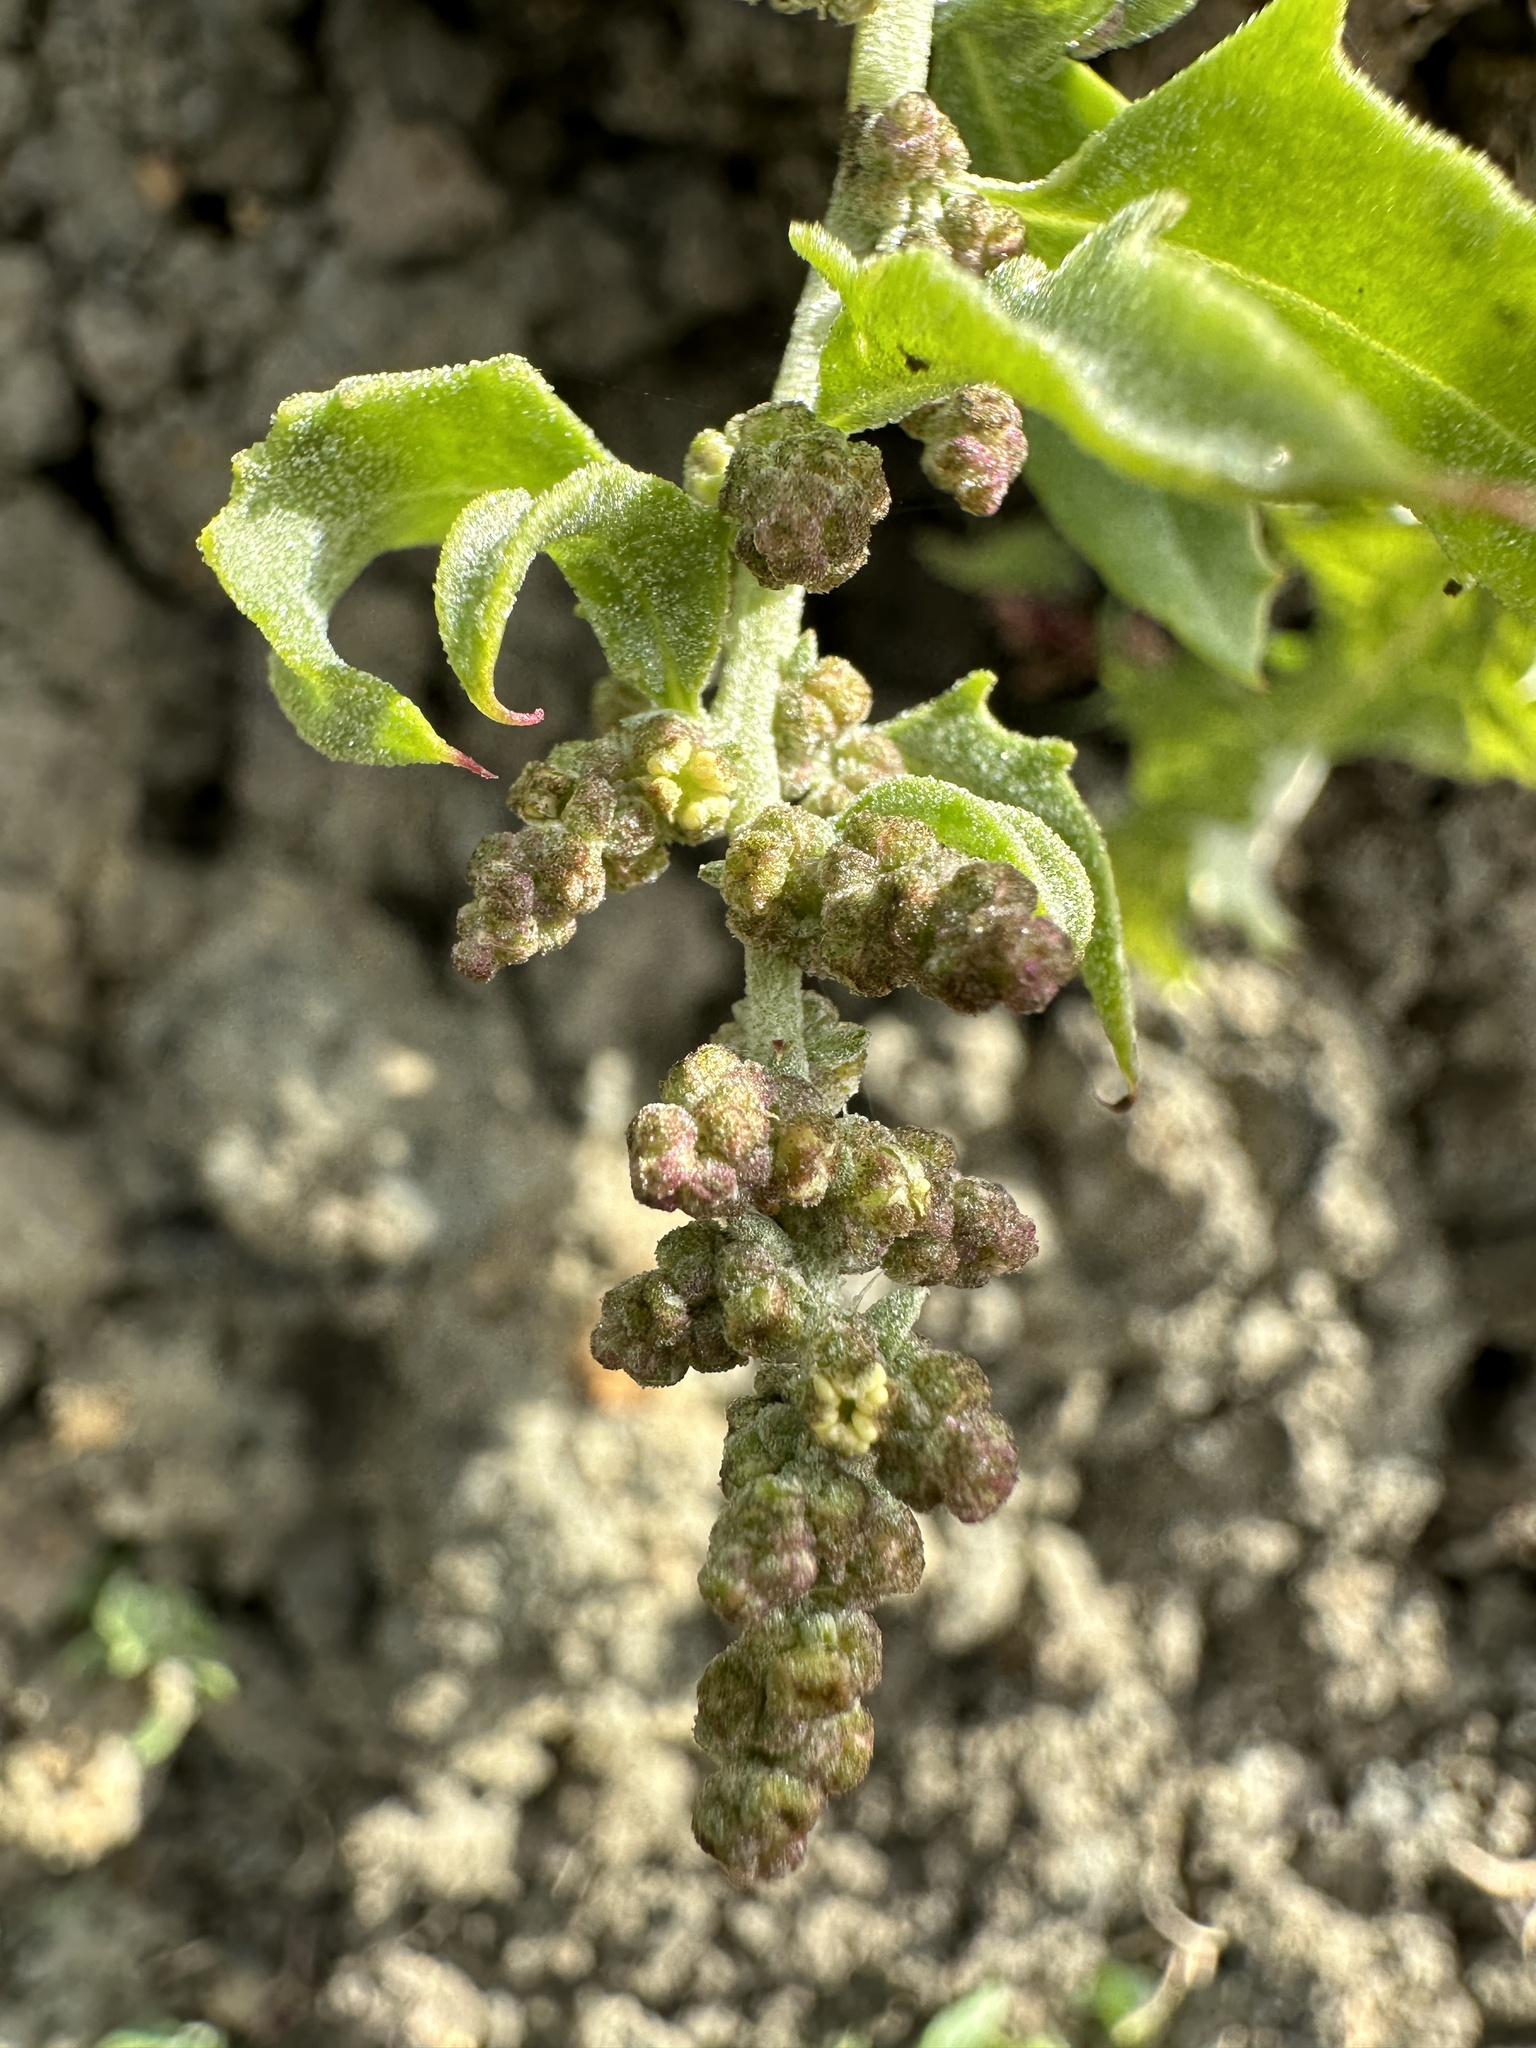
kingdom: Plantae
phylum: Tracheophyta
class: Magnoliopsida
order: Caryophyllales
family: Amaranthaceae
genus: Extriplex
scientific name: Extriplex joaquinana
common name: San joaquin saltbush
